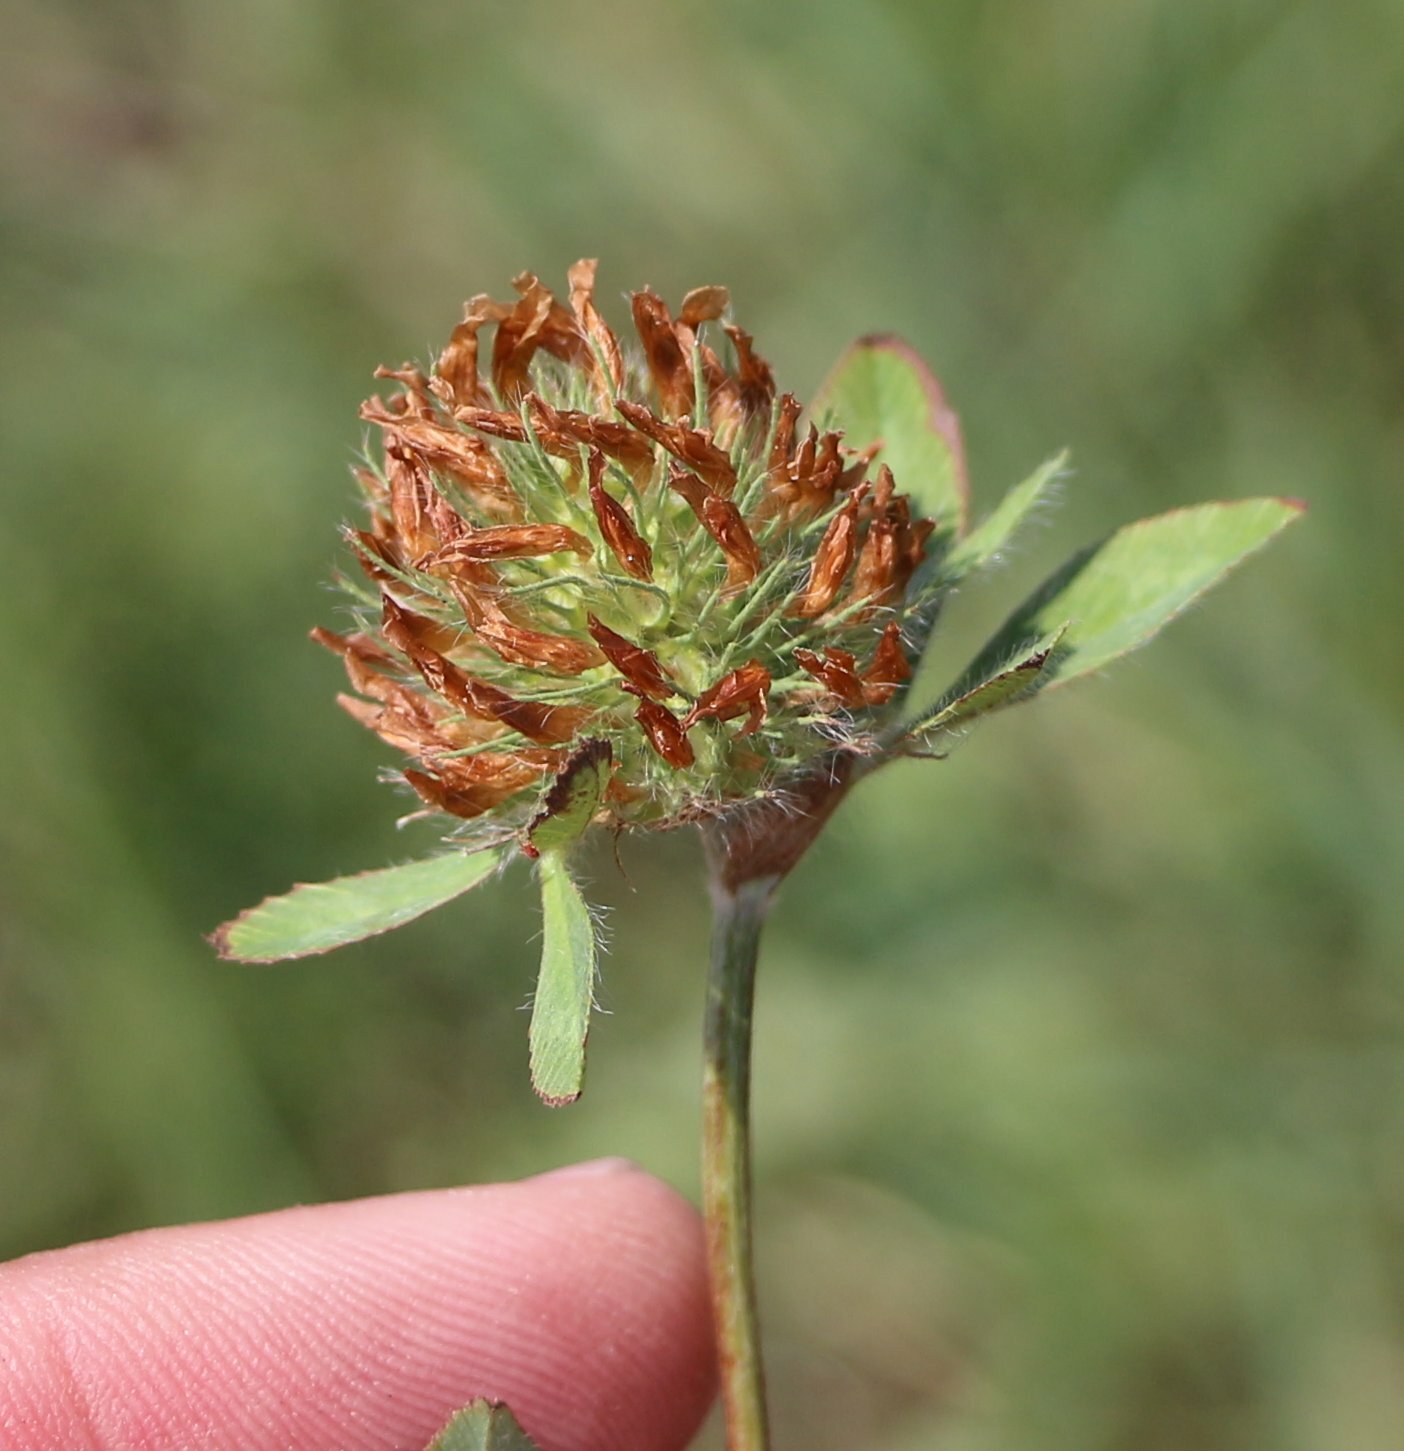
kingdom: Plantae
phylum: Tracheophyta
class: Magnoliopsida
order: Fabales
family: Fabaceae
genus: Trifolium
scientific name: Trifolium diffusum
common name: Diffuse clover
